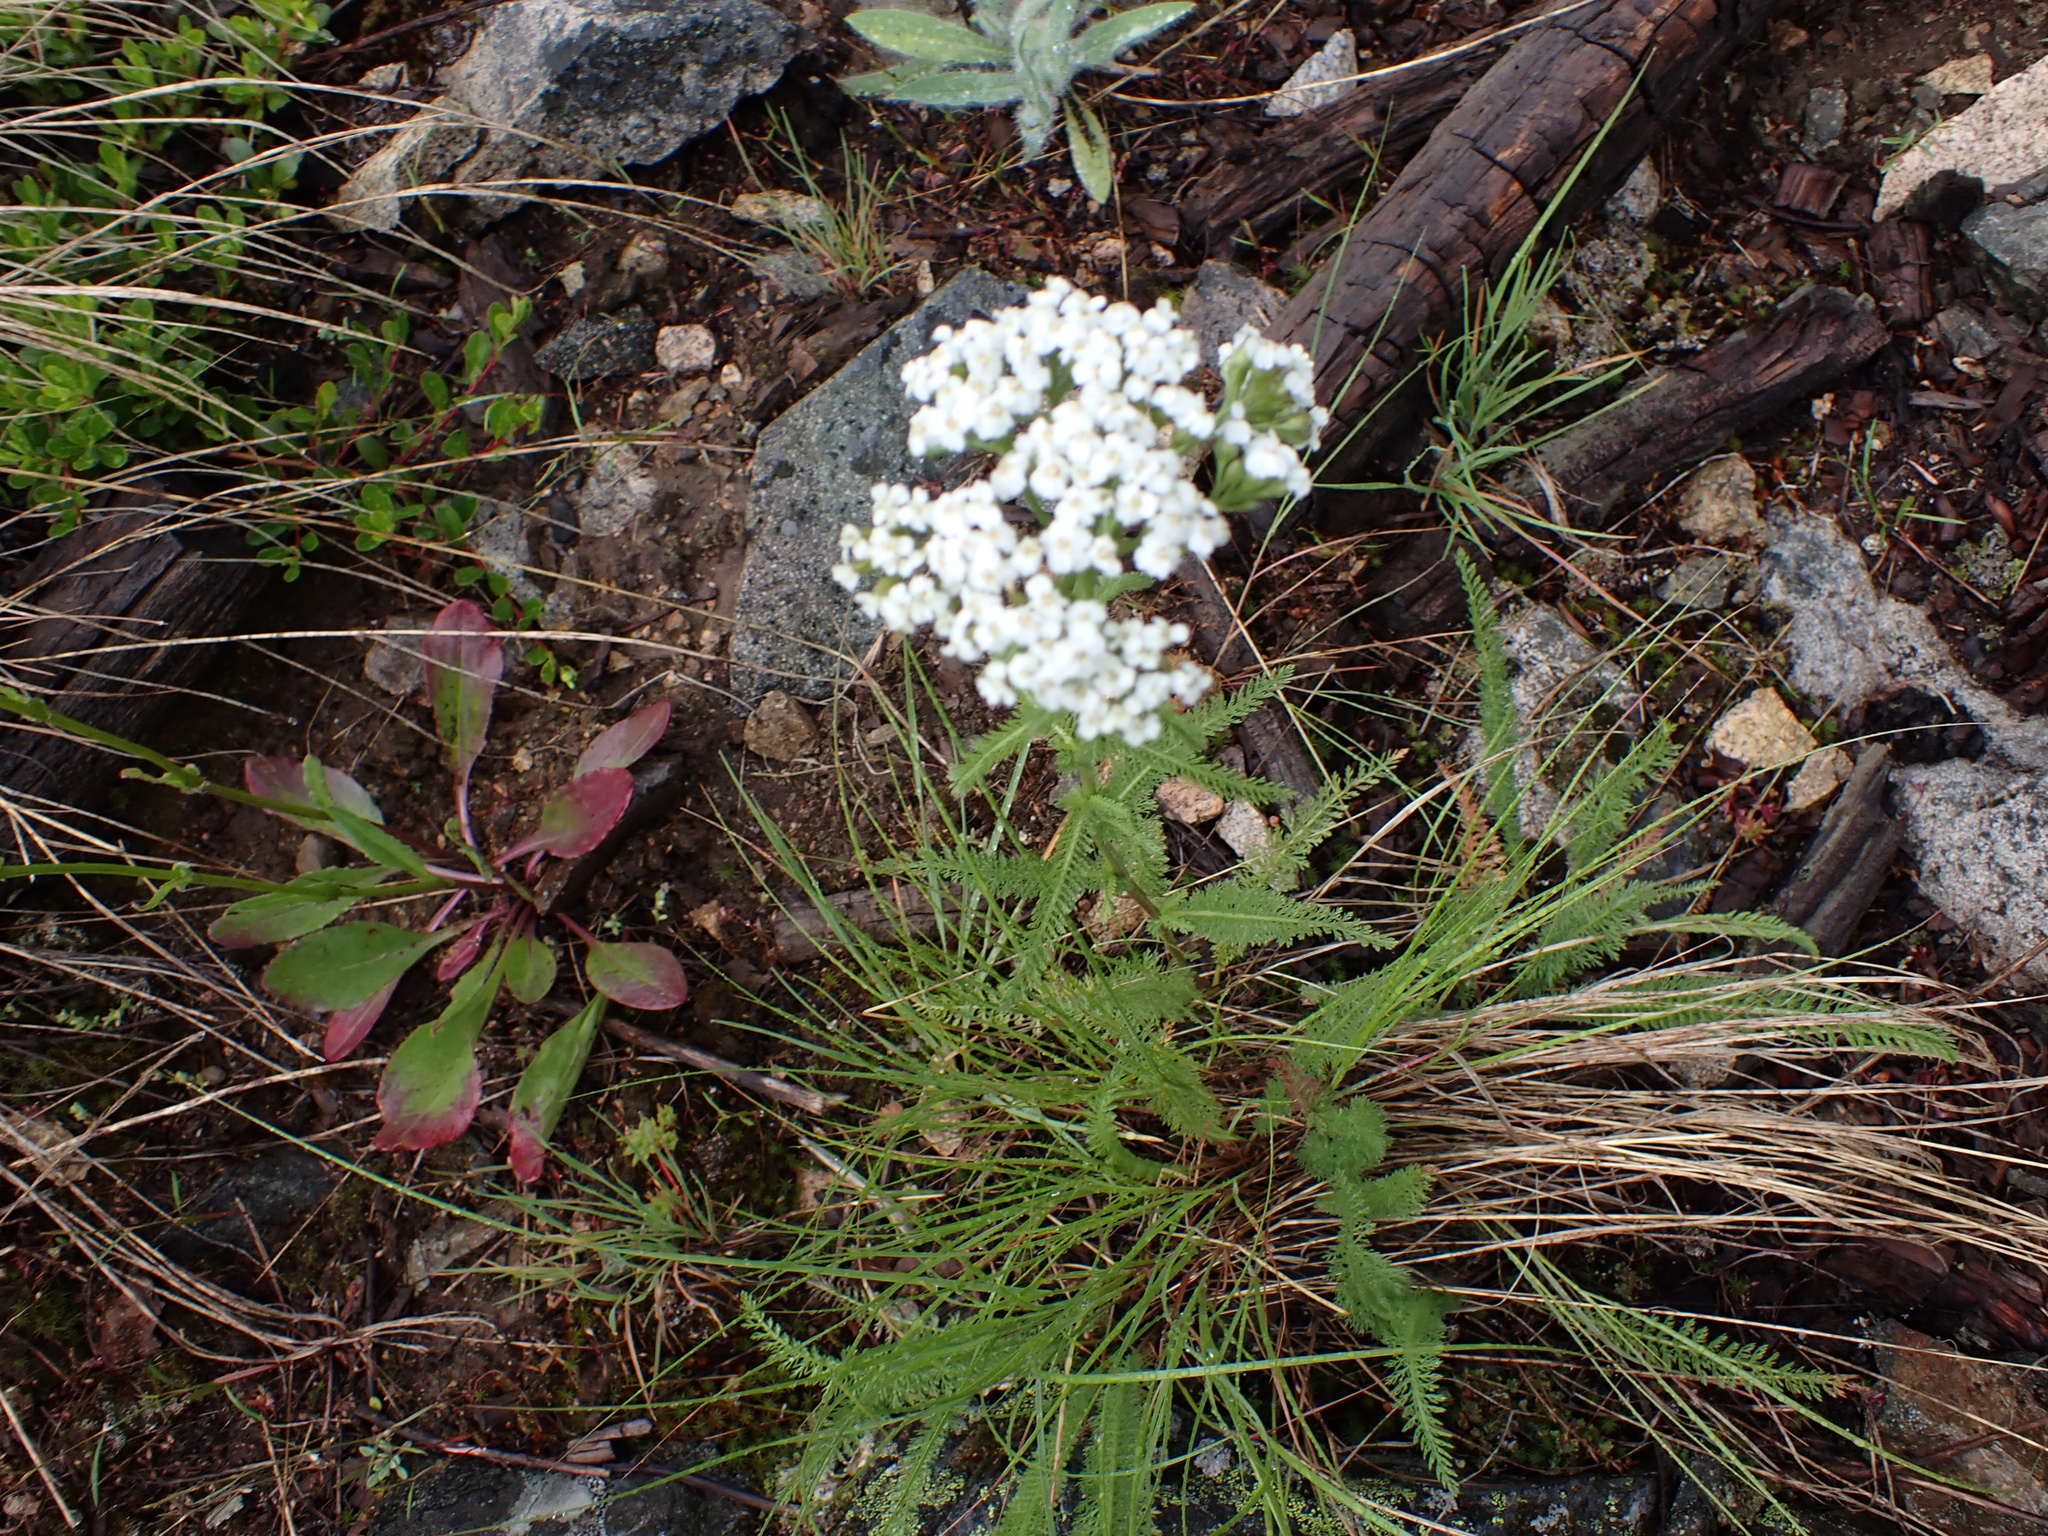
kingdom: Plantae
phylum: Tracheophyta
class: Magnoliopsida
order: Asterales
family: Asteraceae
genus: Achillea
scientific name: Achillea millefolium
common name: Yarrow
